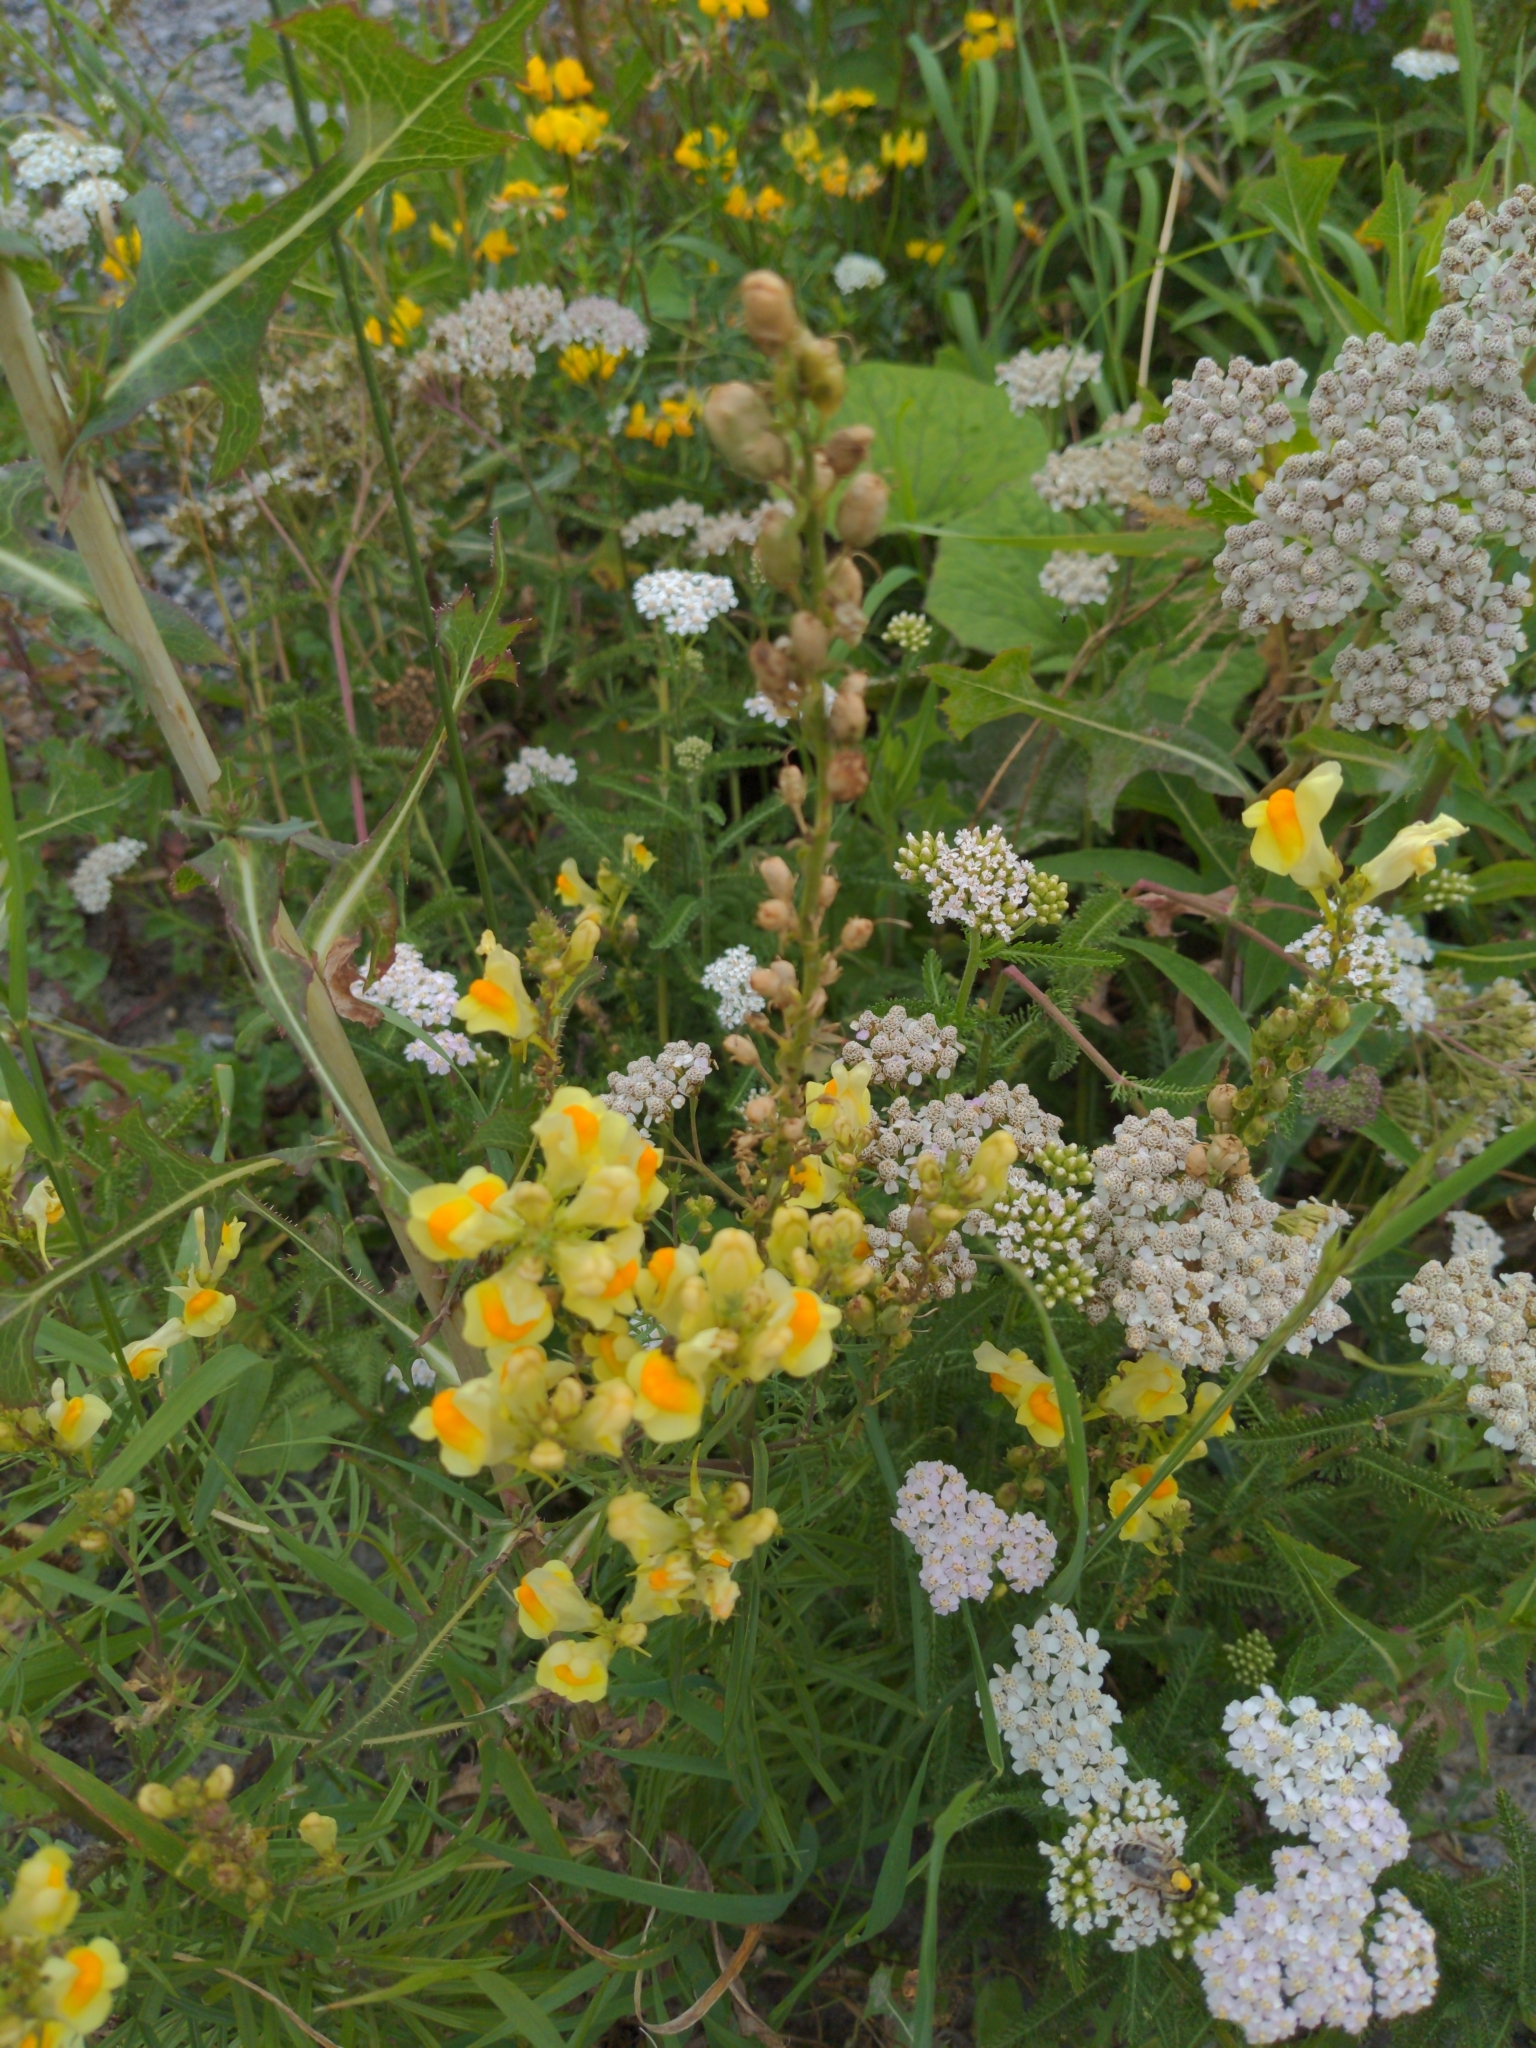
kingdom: Plantae
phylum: Tracheophyta
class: Magnoliopsida
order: Lamiales
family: Plantaginaceae
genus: Linaria
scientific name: Linaria vulgaris
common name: Butter and eggs
